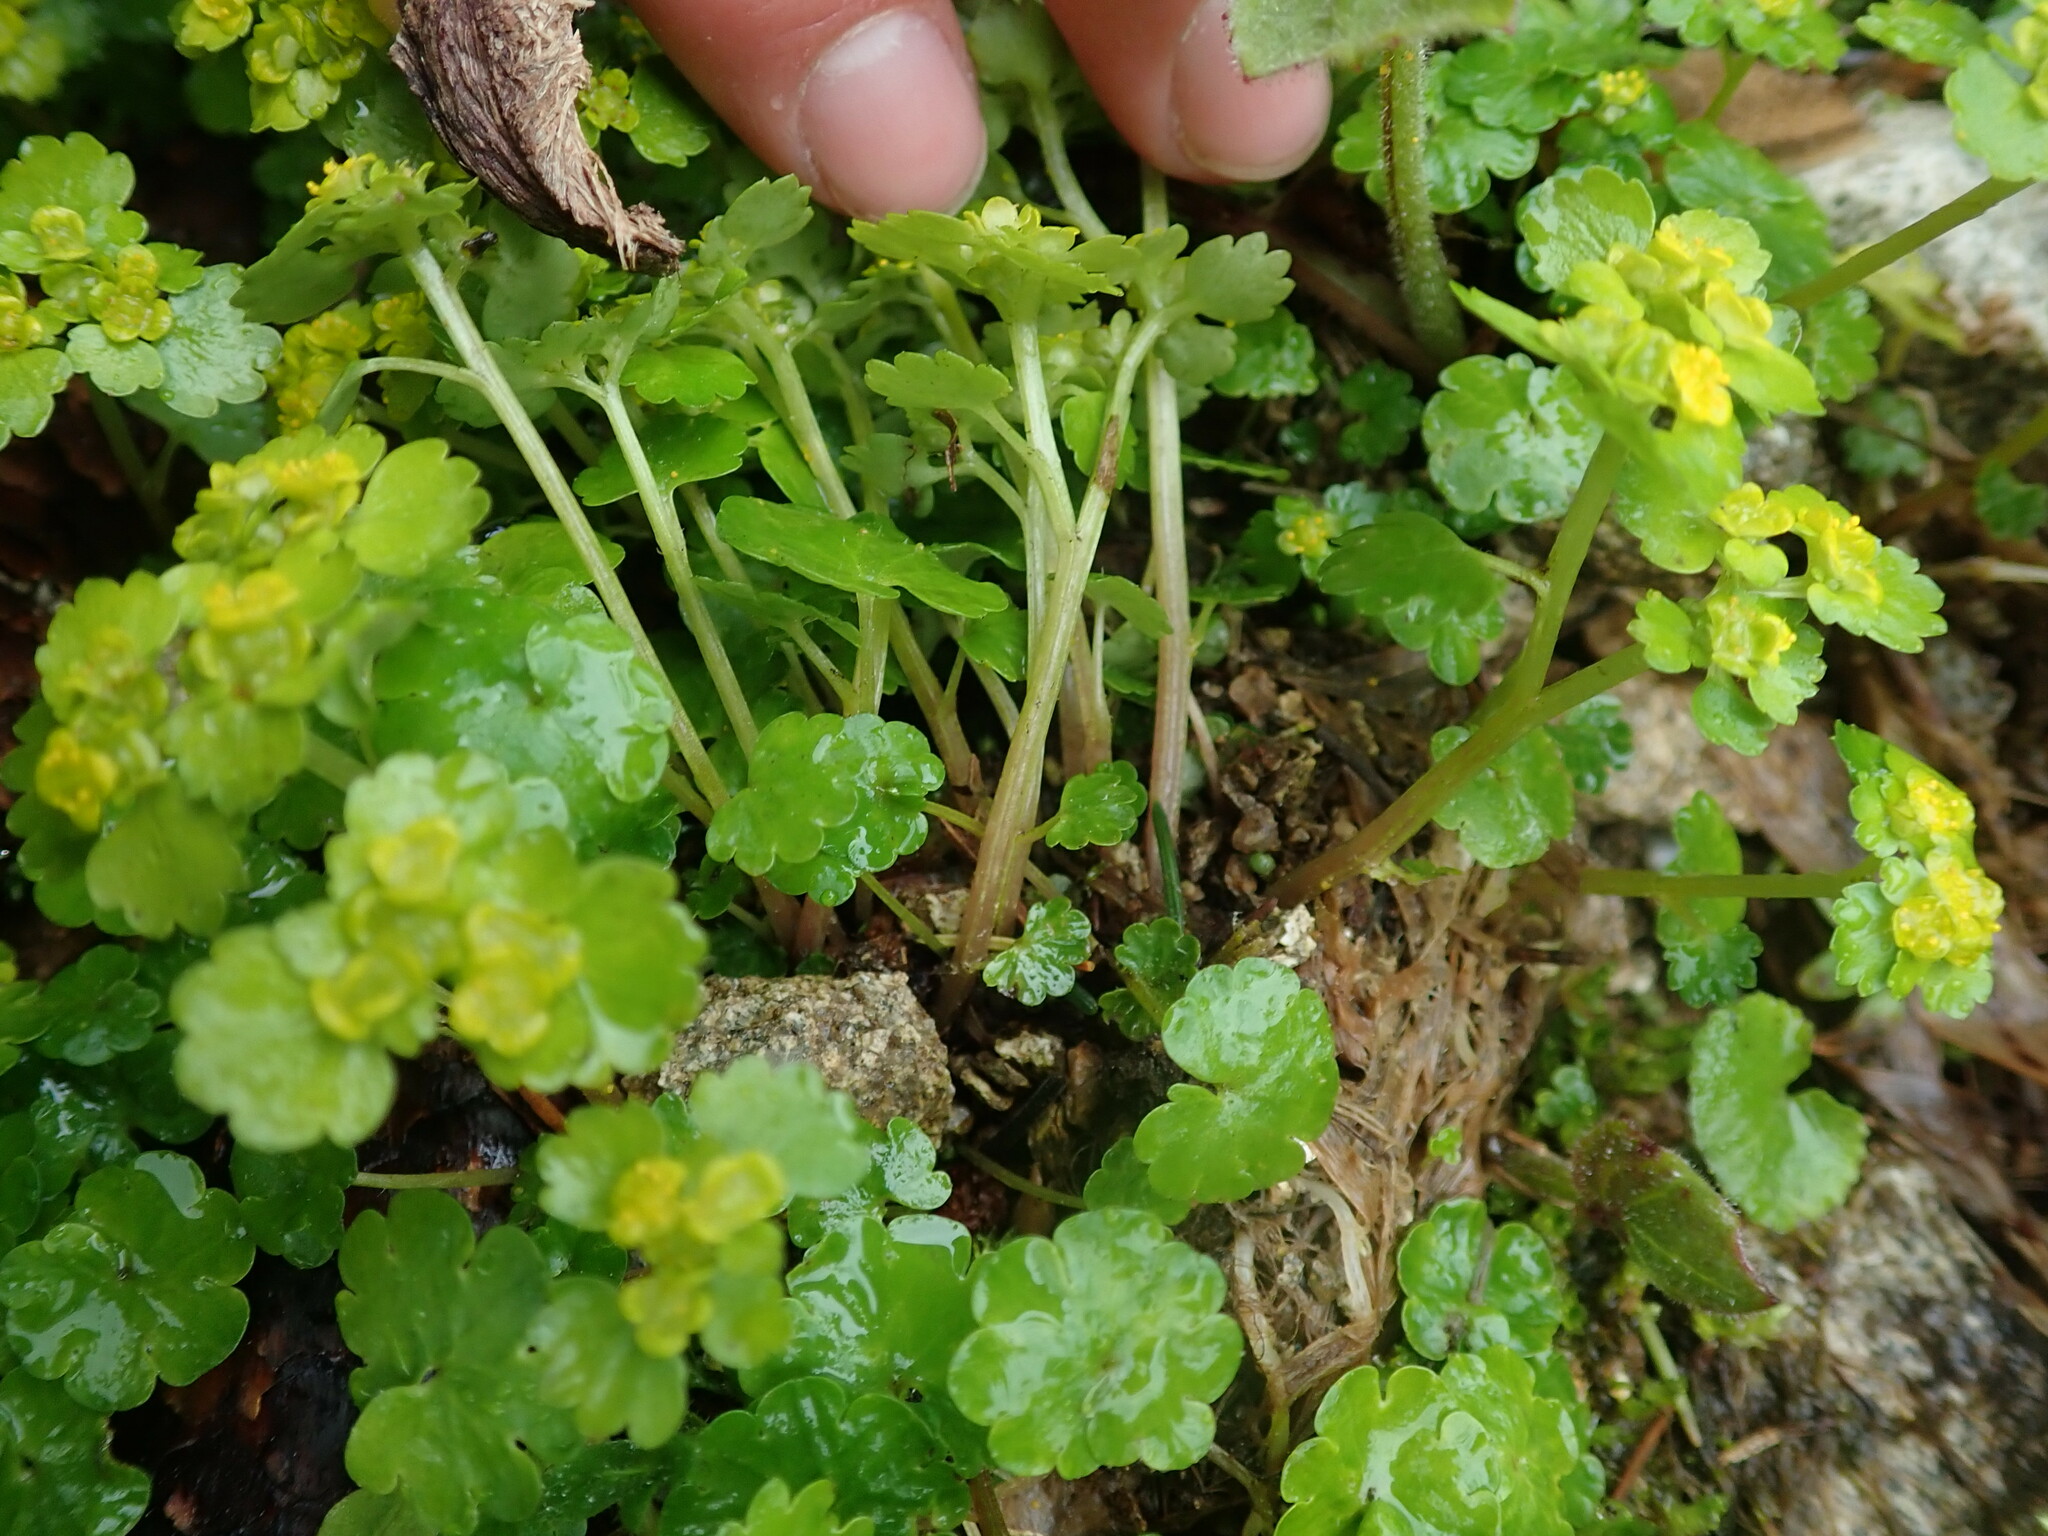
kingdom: Plantae
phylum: Tracheophyta
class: Magnoliopsida
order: Saxifragales
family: Saxifragaceae
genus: Chrysosplenium
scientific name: Chrysosplenium alternifolium
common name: Alternate-leaved golden-saxifrage
